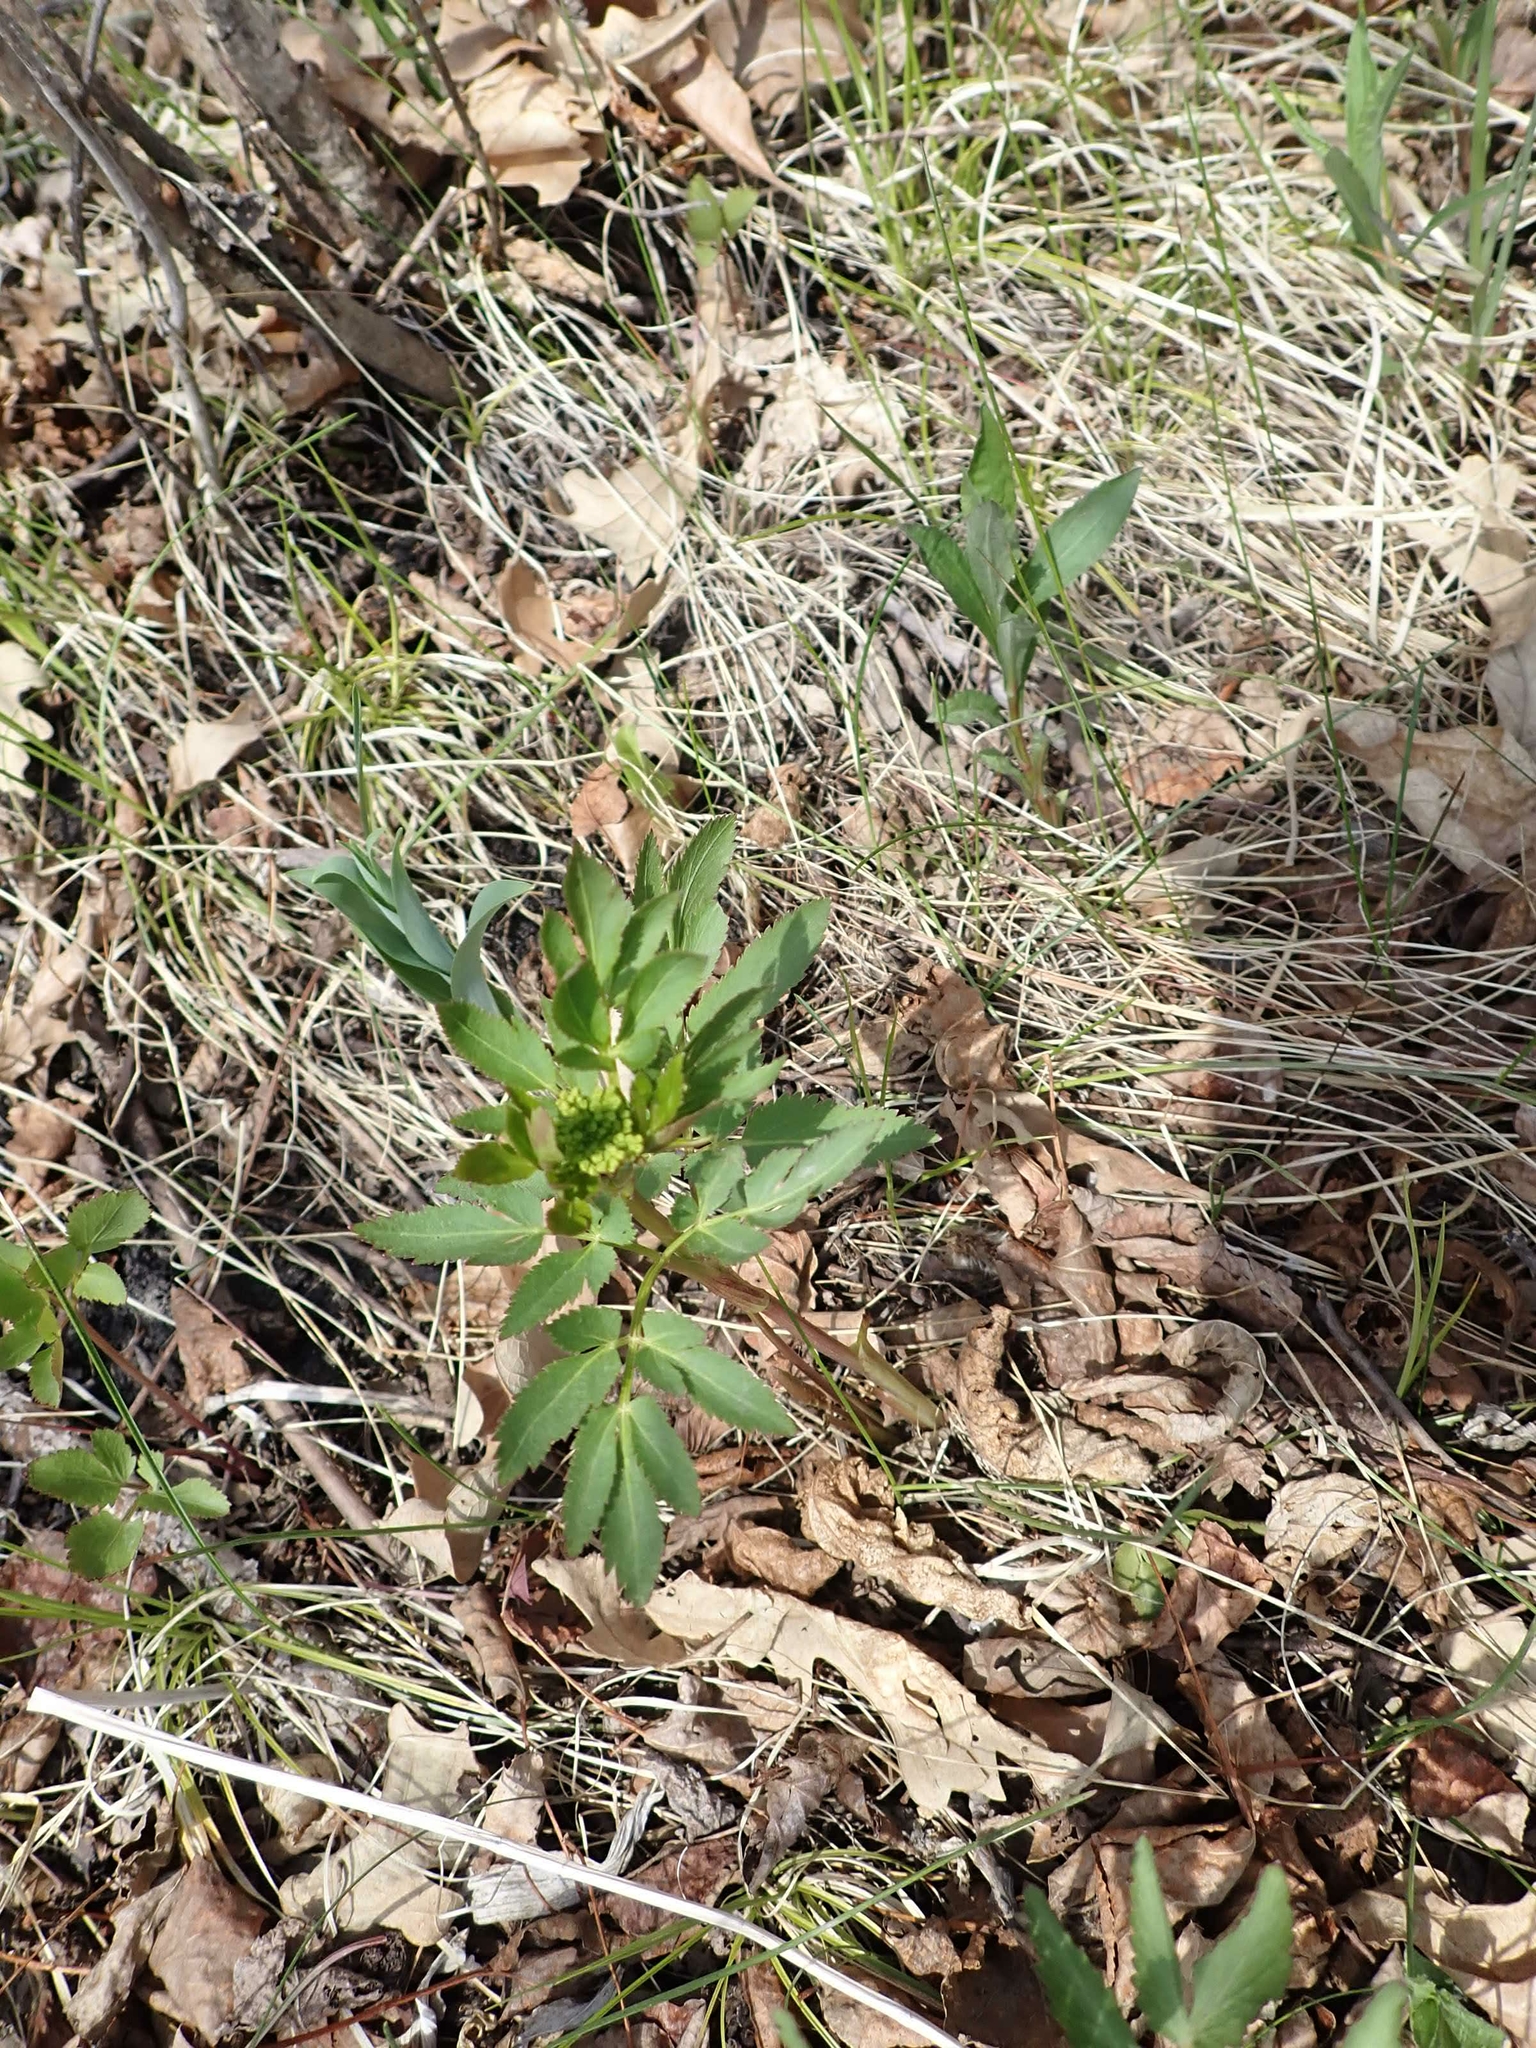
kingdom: Plantae
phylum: Tracheophyta
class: Magnoliopsida
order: Apiales
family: Apiaceae
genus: Zizia
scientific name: Zizia aurea
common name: Golden alexanders
